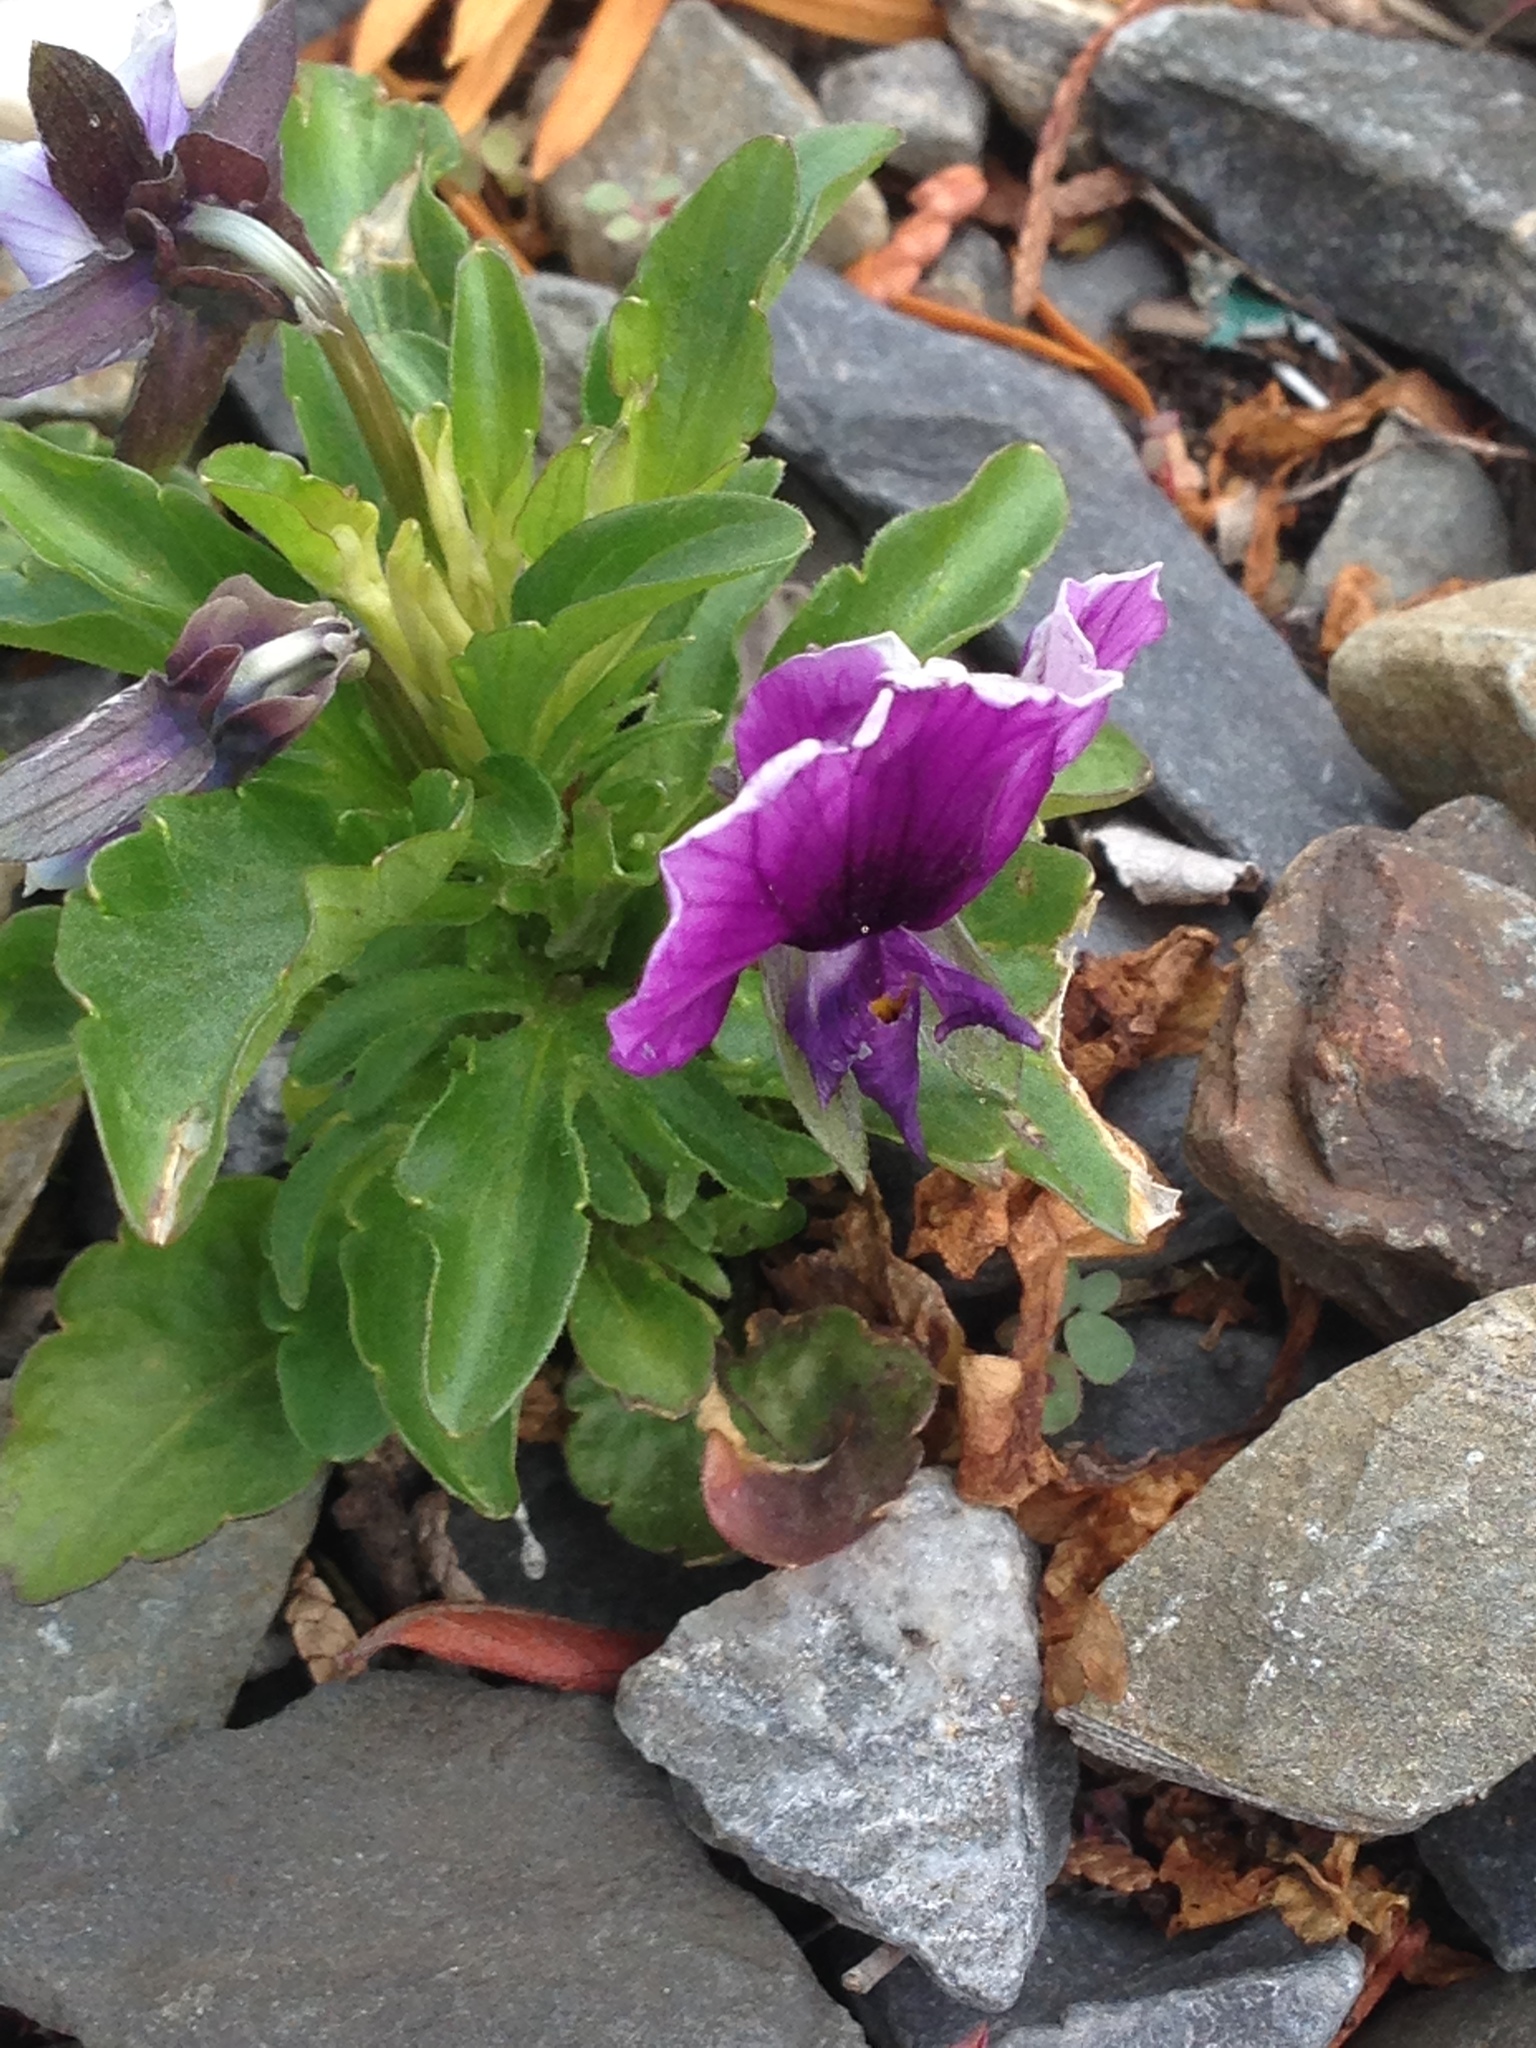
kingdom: Plantae
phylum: Tracheophyta
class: Magnoliopsida
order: Malpighiales
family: Violaceae
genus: Viola
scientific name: Viola wittrockiana
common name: Garden pansy
